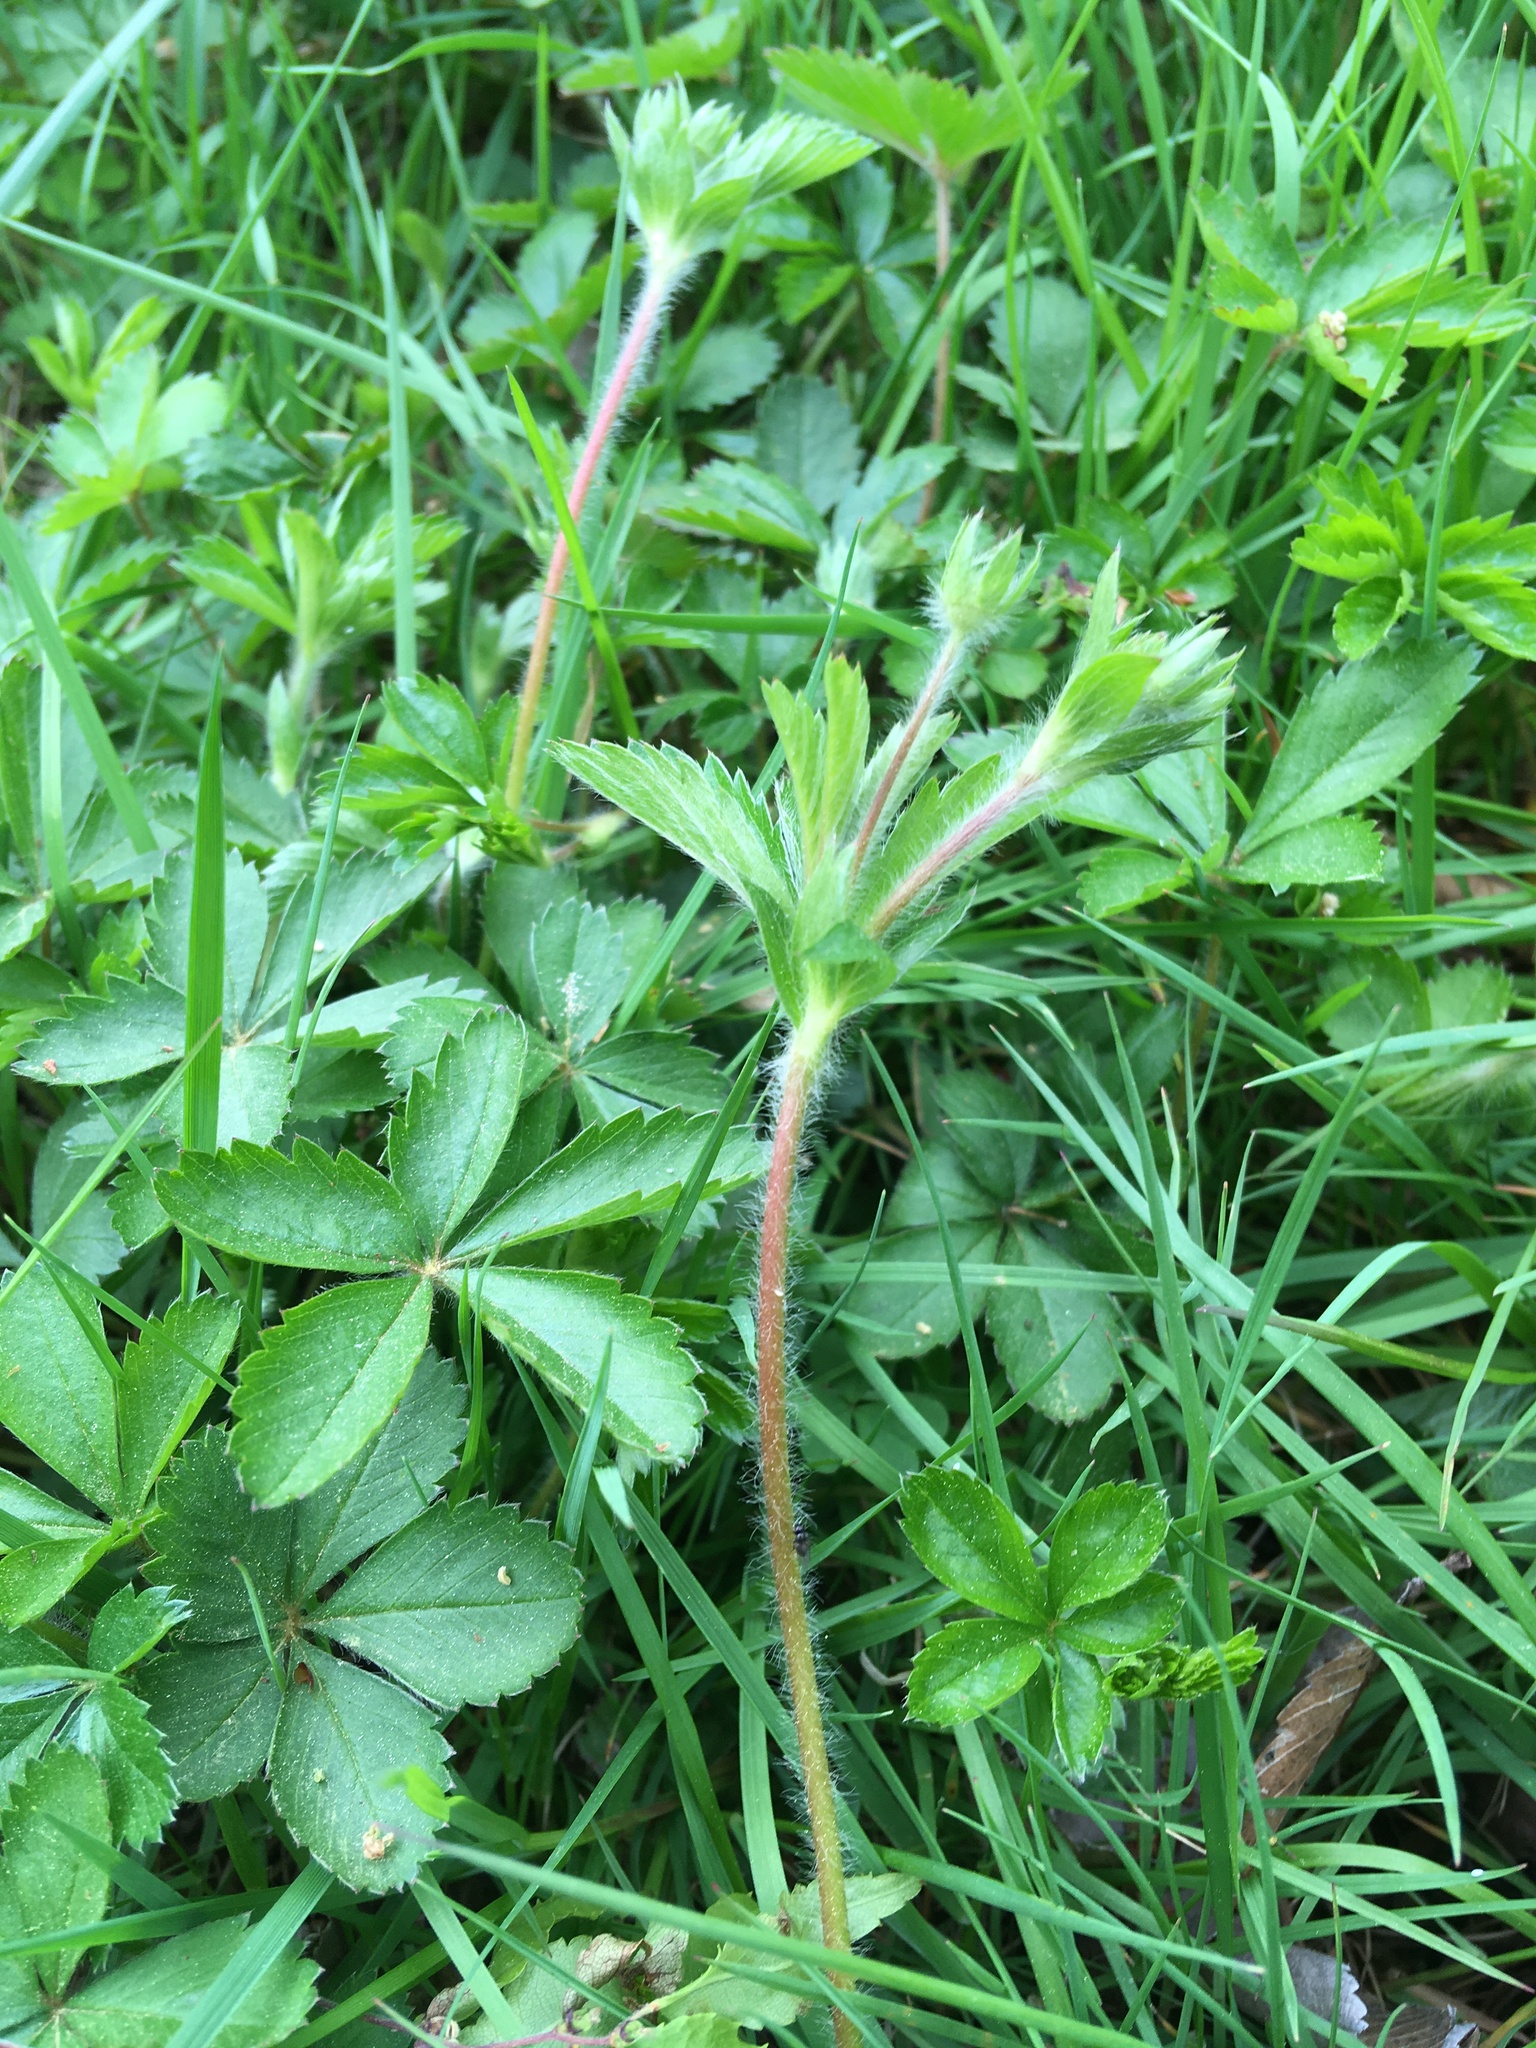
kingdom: Plantae
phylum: Tracheophyta
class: Magnoliopsida
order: Rosales
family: Rosaceae
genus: Potentilla
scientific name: Potentilla simplex
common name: Old field cinquefoil
